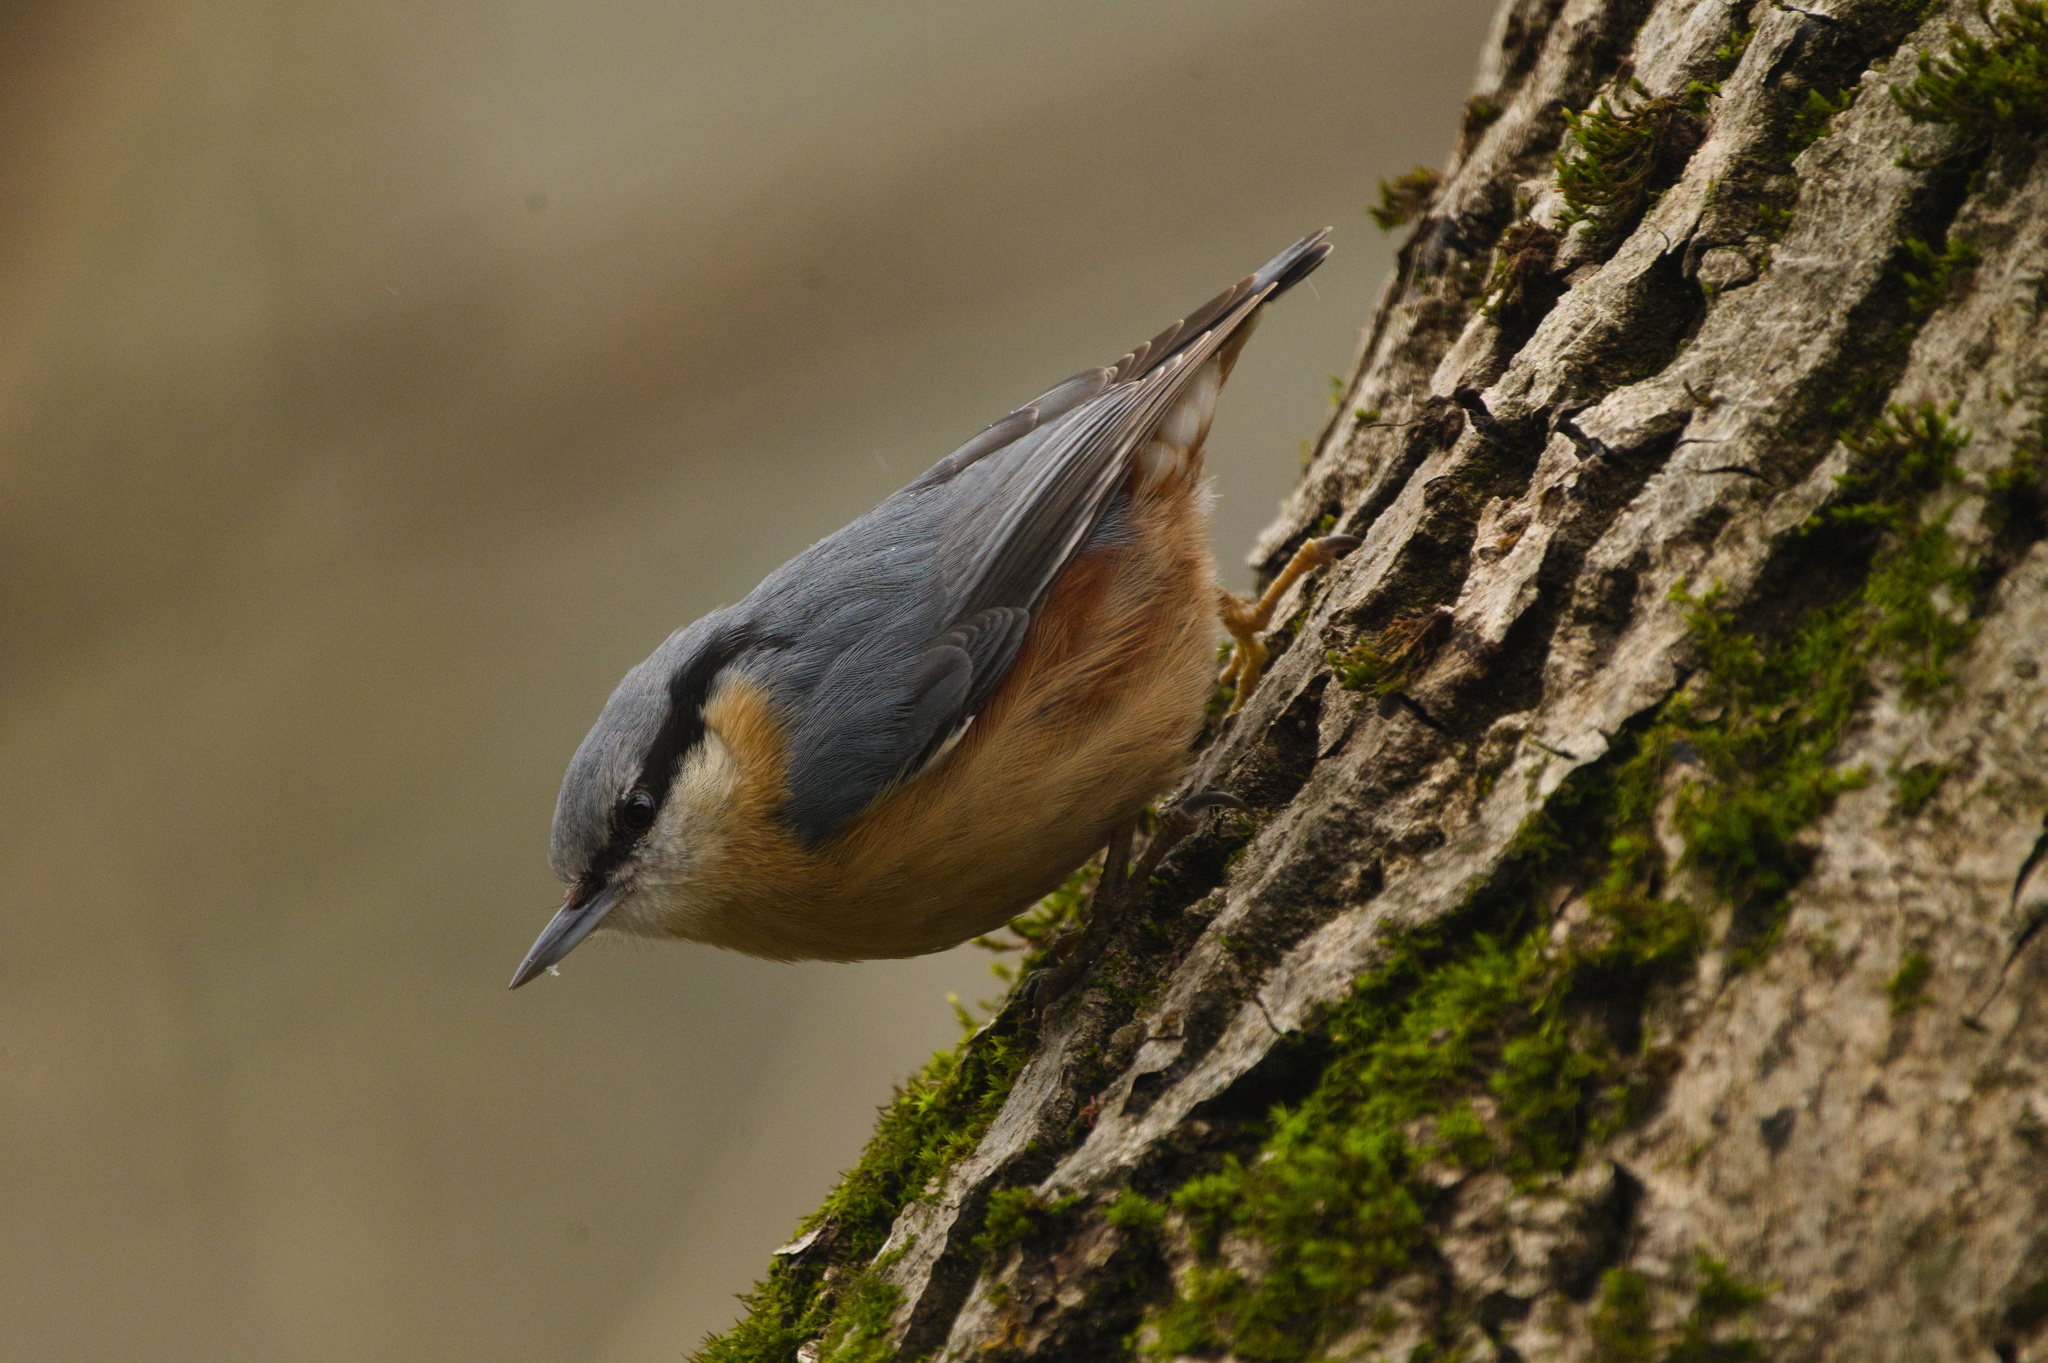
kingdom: Animalia
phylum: Chordata
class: Aves
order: Passeriformes
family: Sittidae
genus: Sitta
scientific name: Sitta europaea
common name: Eurasian nuthatch
